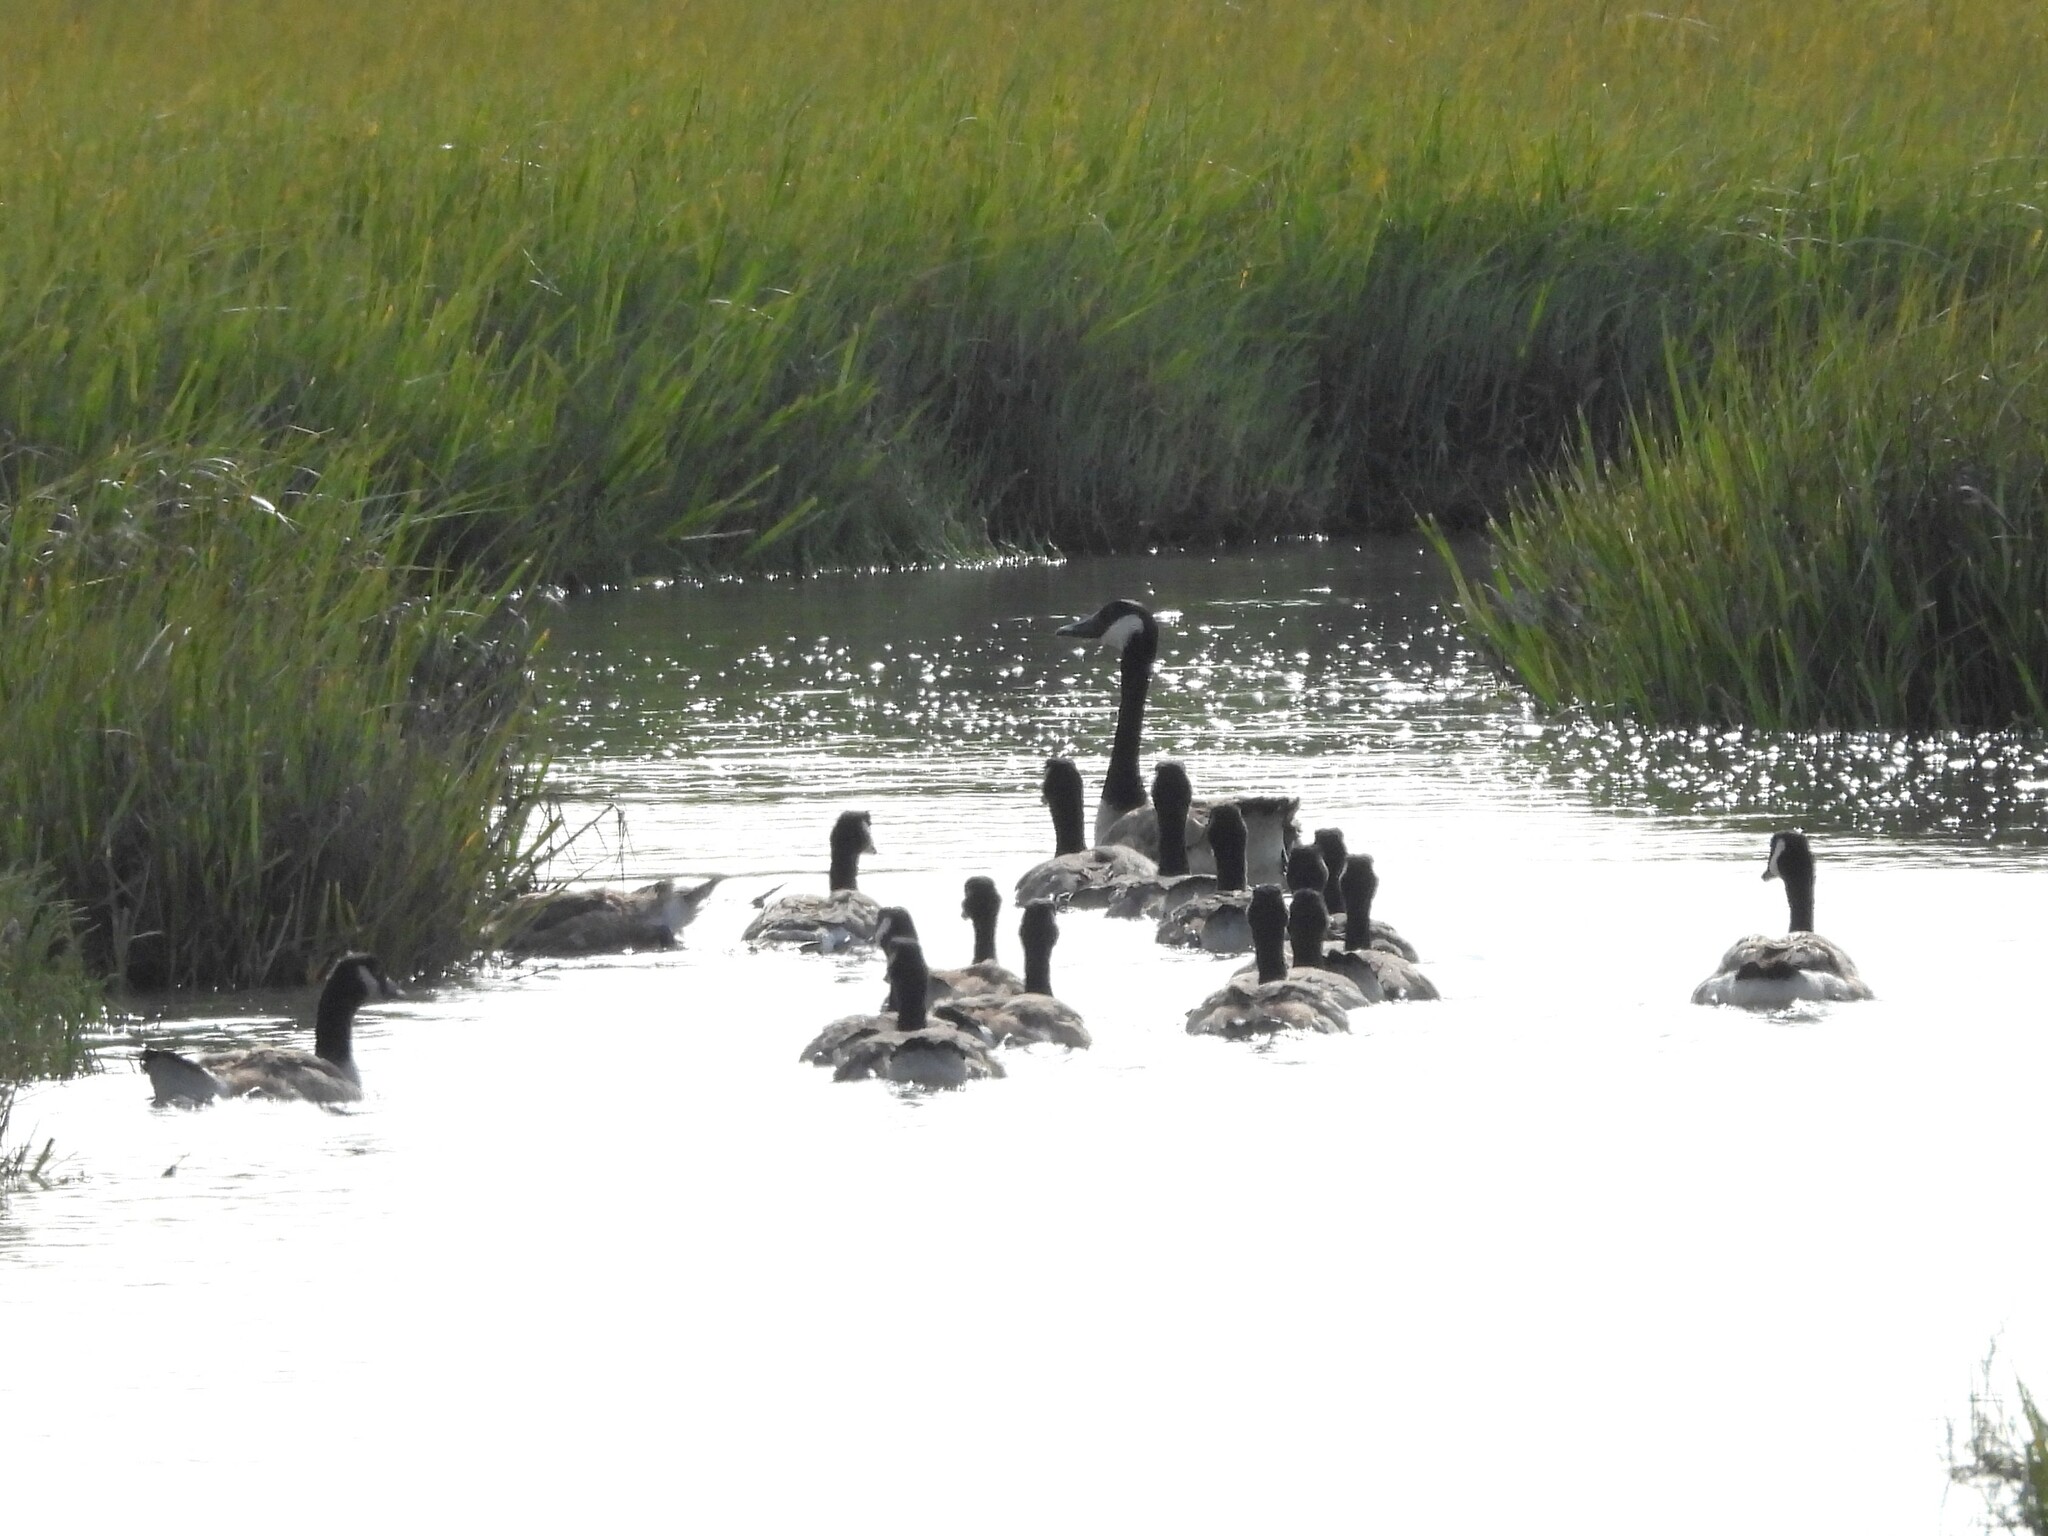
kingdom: Animalia
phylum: Chordata
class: Aves
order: Anseriformes
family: Anatidae
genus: Branta
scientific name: Branta canadensis
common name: Canada goose
